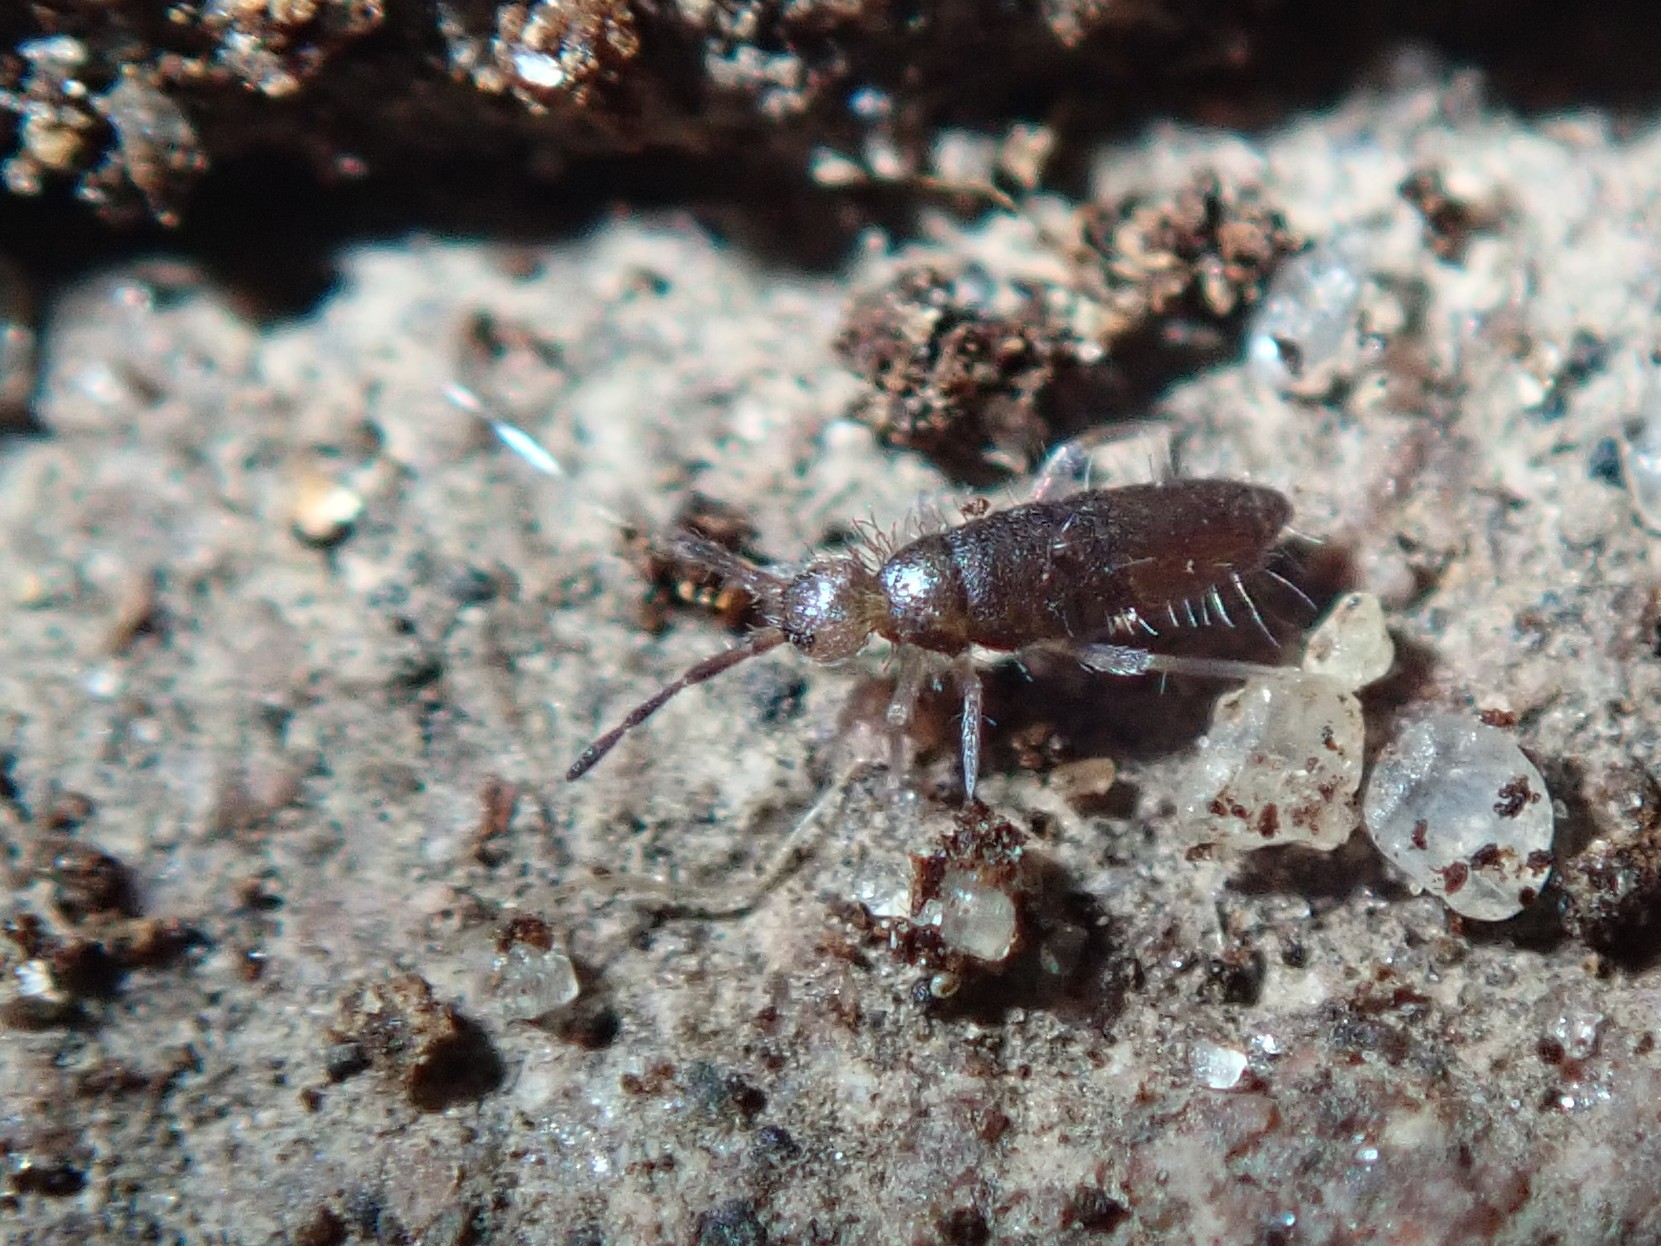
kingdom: Animalia
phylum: Arthropoda
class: Collembola
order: Entomobryomorpha
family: Entomobryidae
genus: Willowsia
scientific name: Willowsia buski
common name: Damp grain springtail
